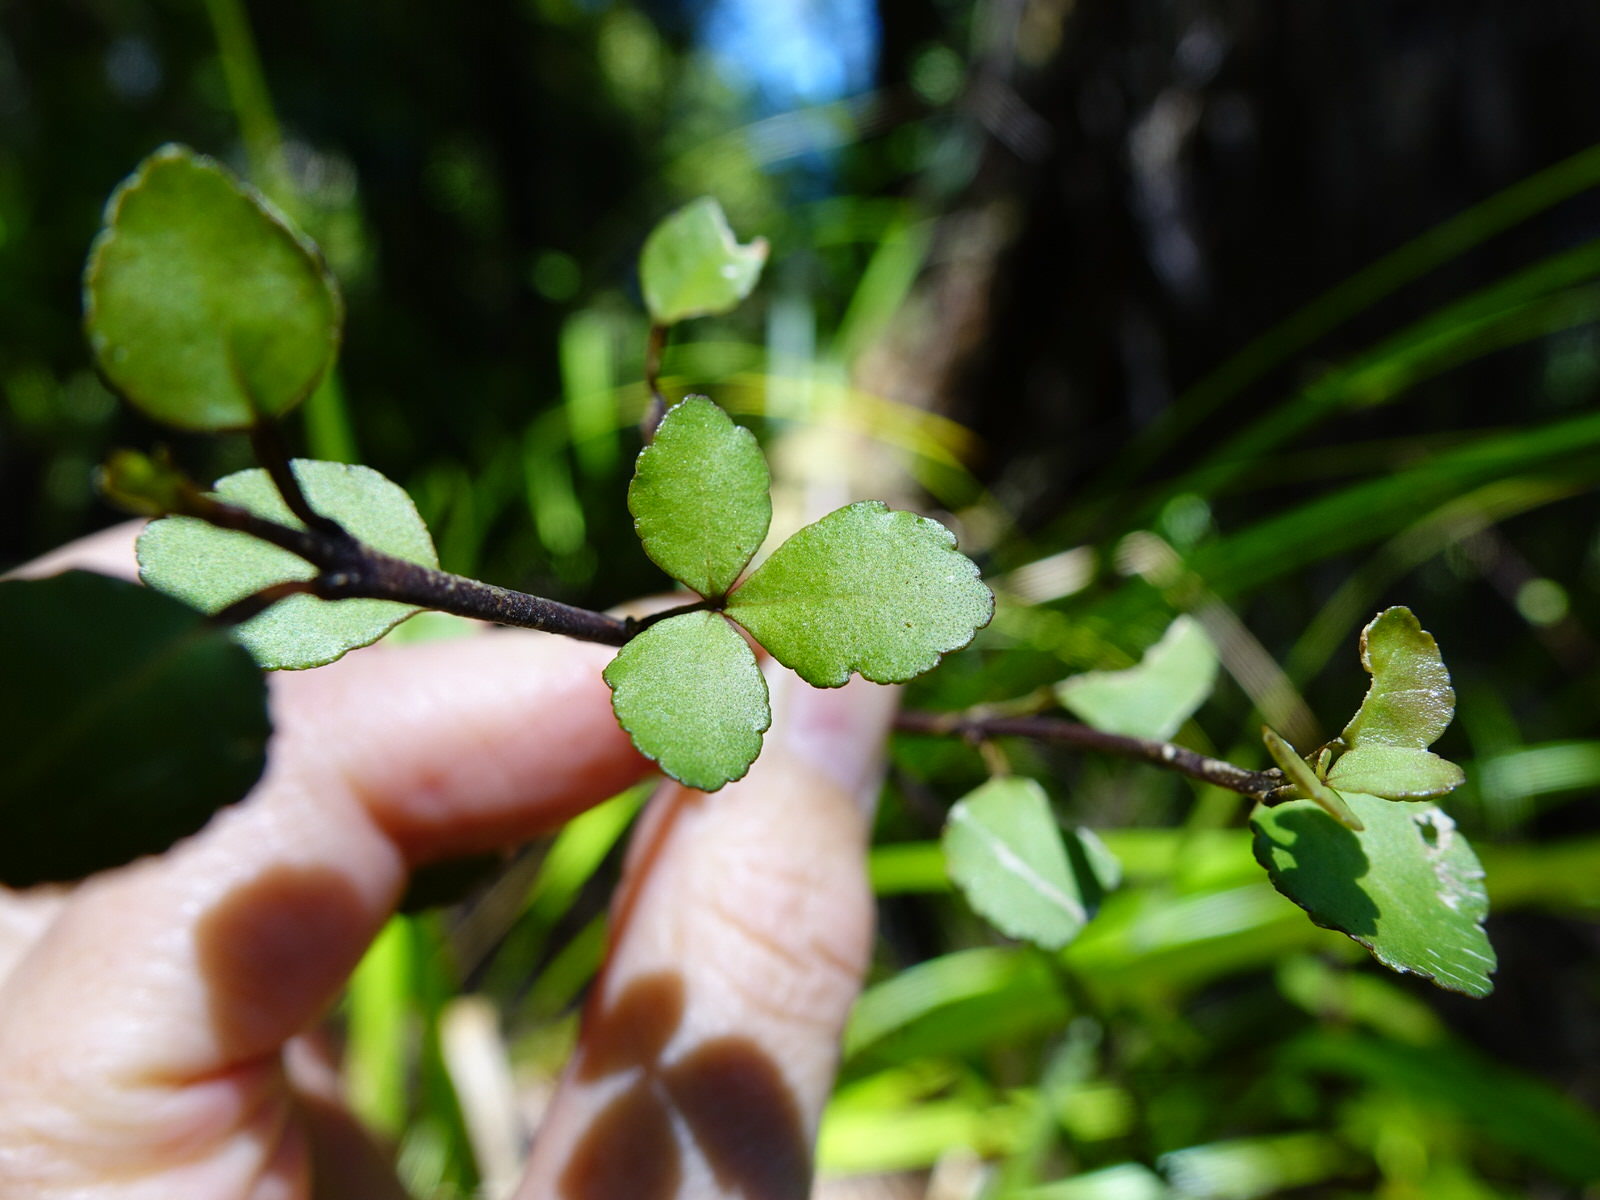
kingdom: Plantae
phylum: Tracheophyta
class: Magnoliopsida
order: Sapindales
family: Rutaceae
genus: Melicope
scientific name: Melicope simplex
